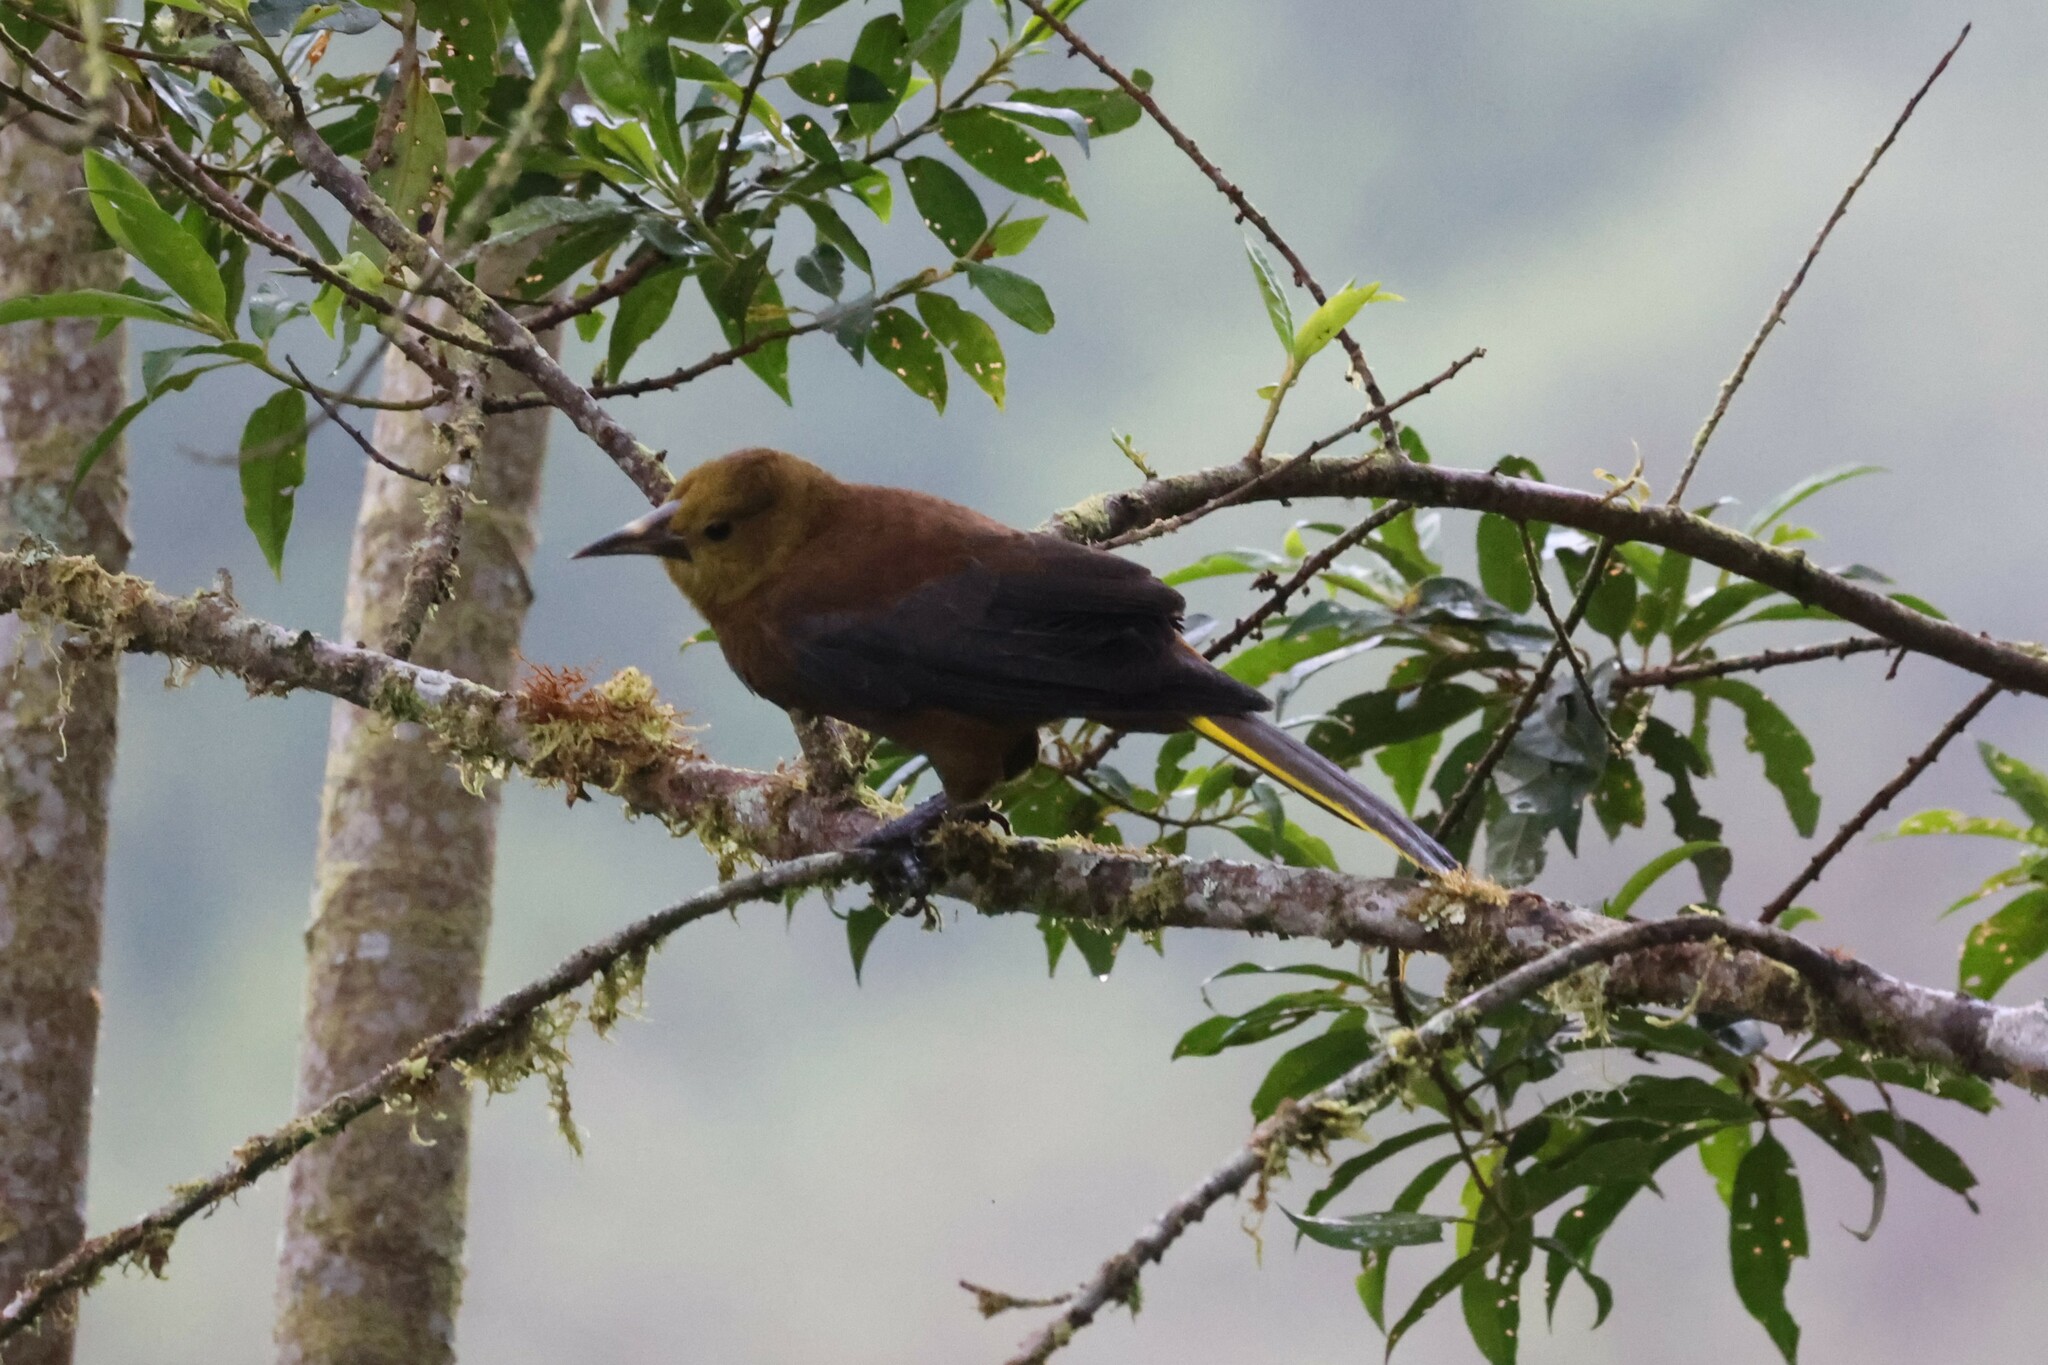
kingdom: Animalia
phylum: Chordata
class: Aves
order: Passeriformes
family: Icteridae
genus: Psarocolius
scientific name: Psarocolius angustifrons
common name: Russet-backed oropendola
